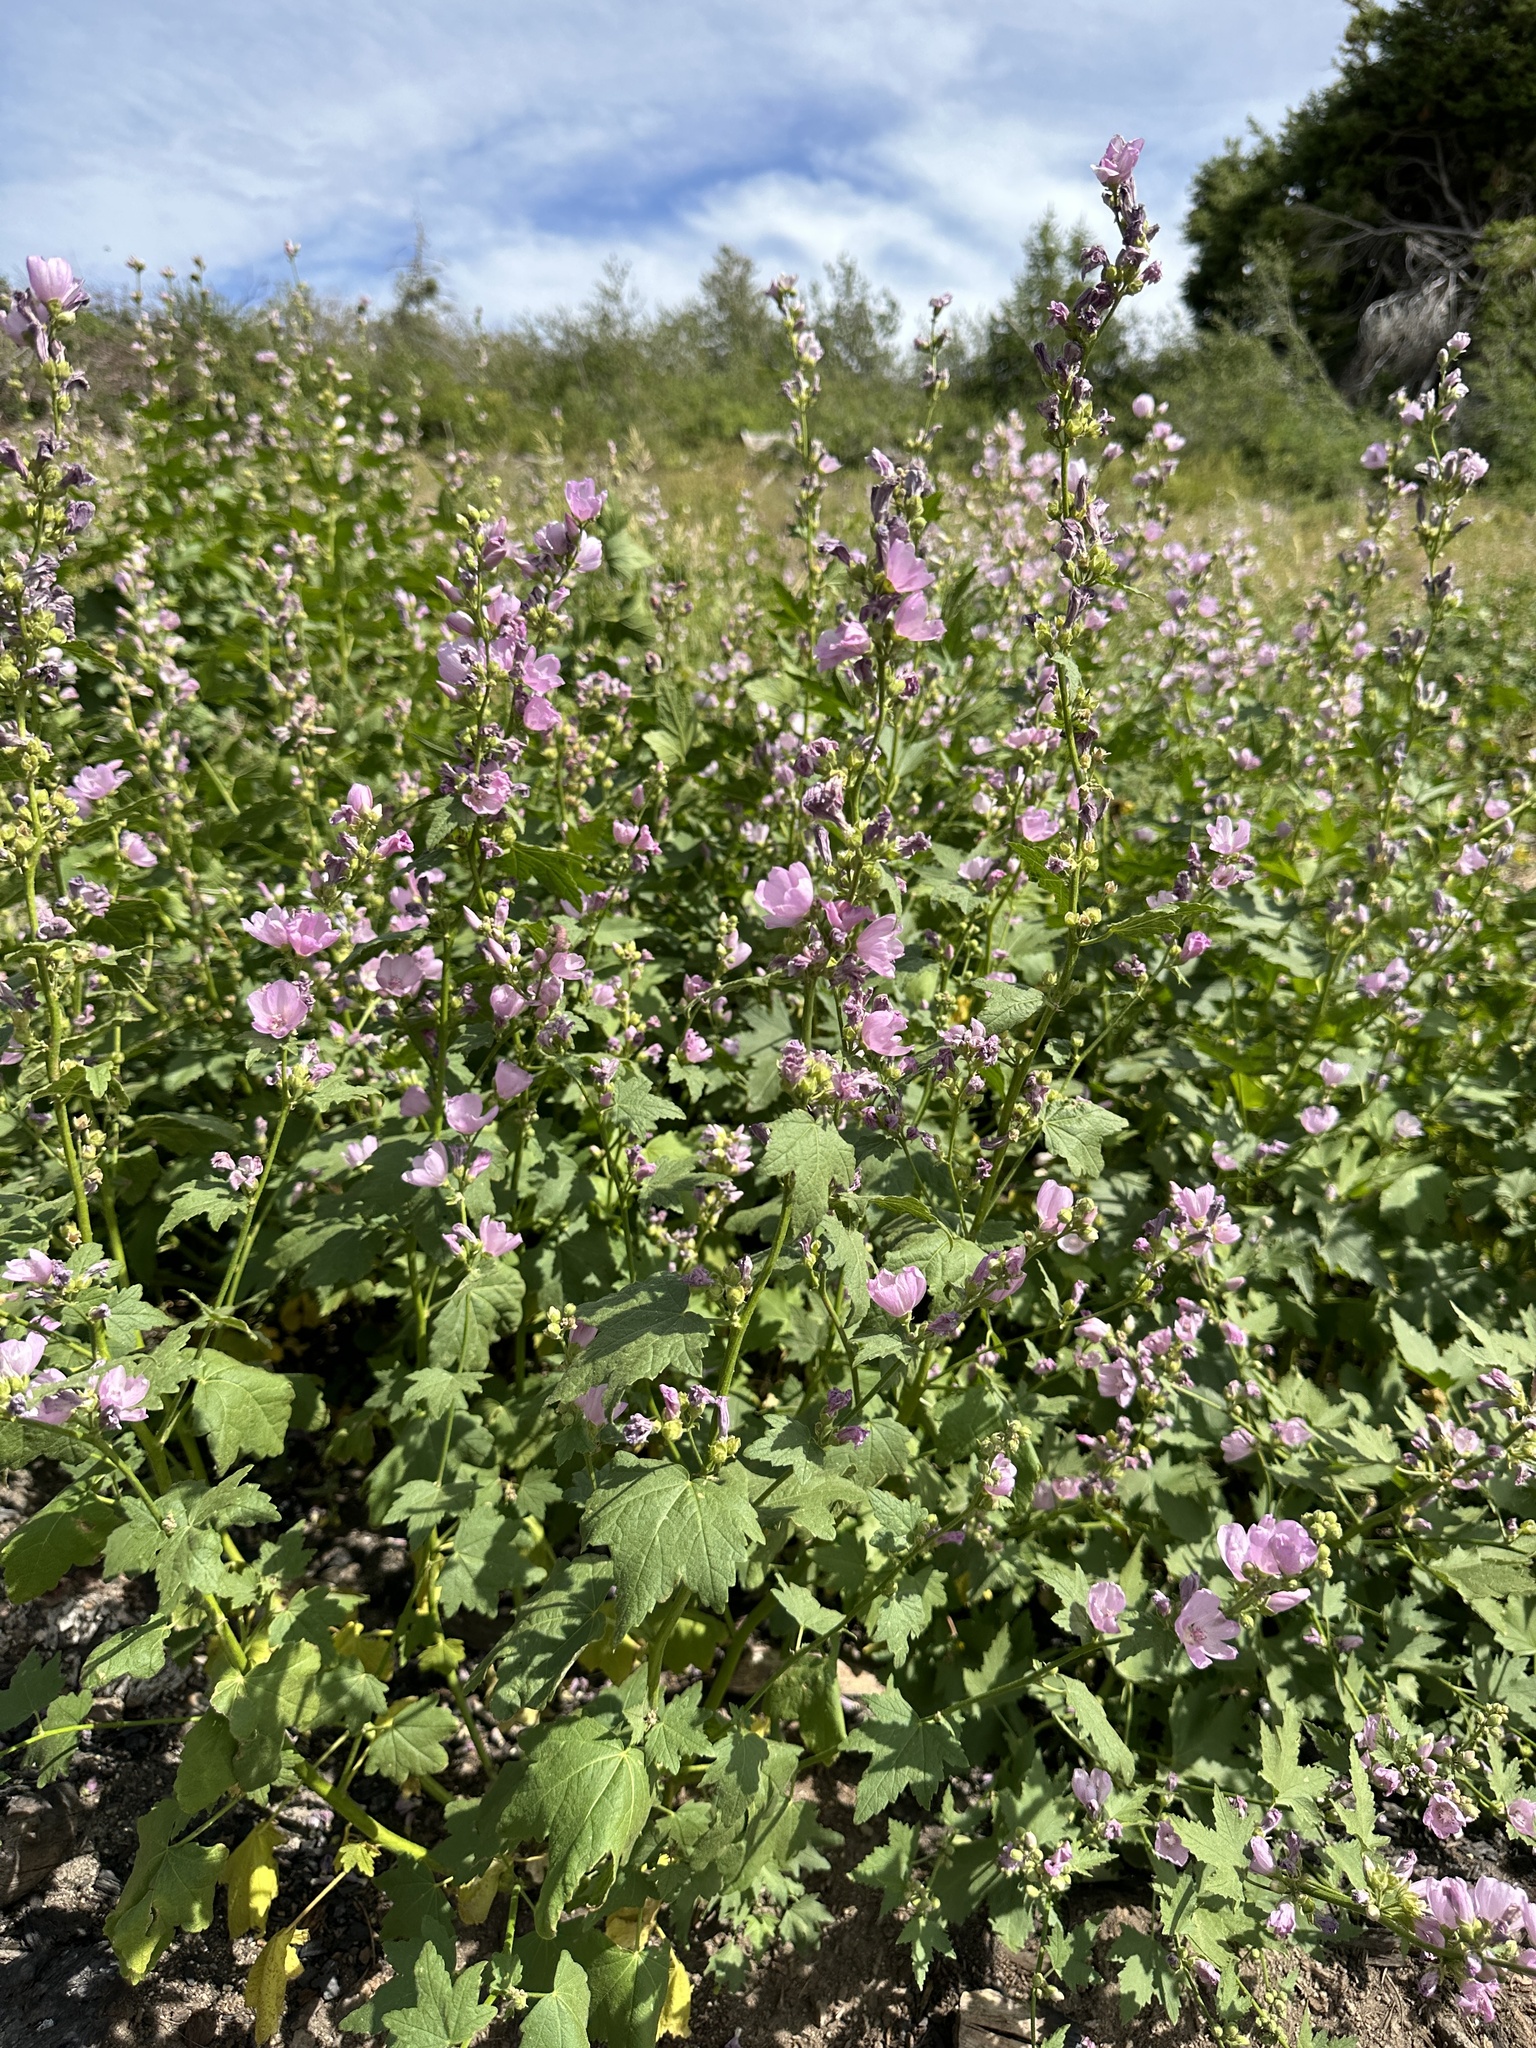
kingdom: Plantae
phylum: Tracheophyta
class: Magnoliopsida
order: Malvales
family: Malvaceae
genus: Iliamna
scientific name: Iliamna rivularis
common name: Wild hollyhock
